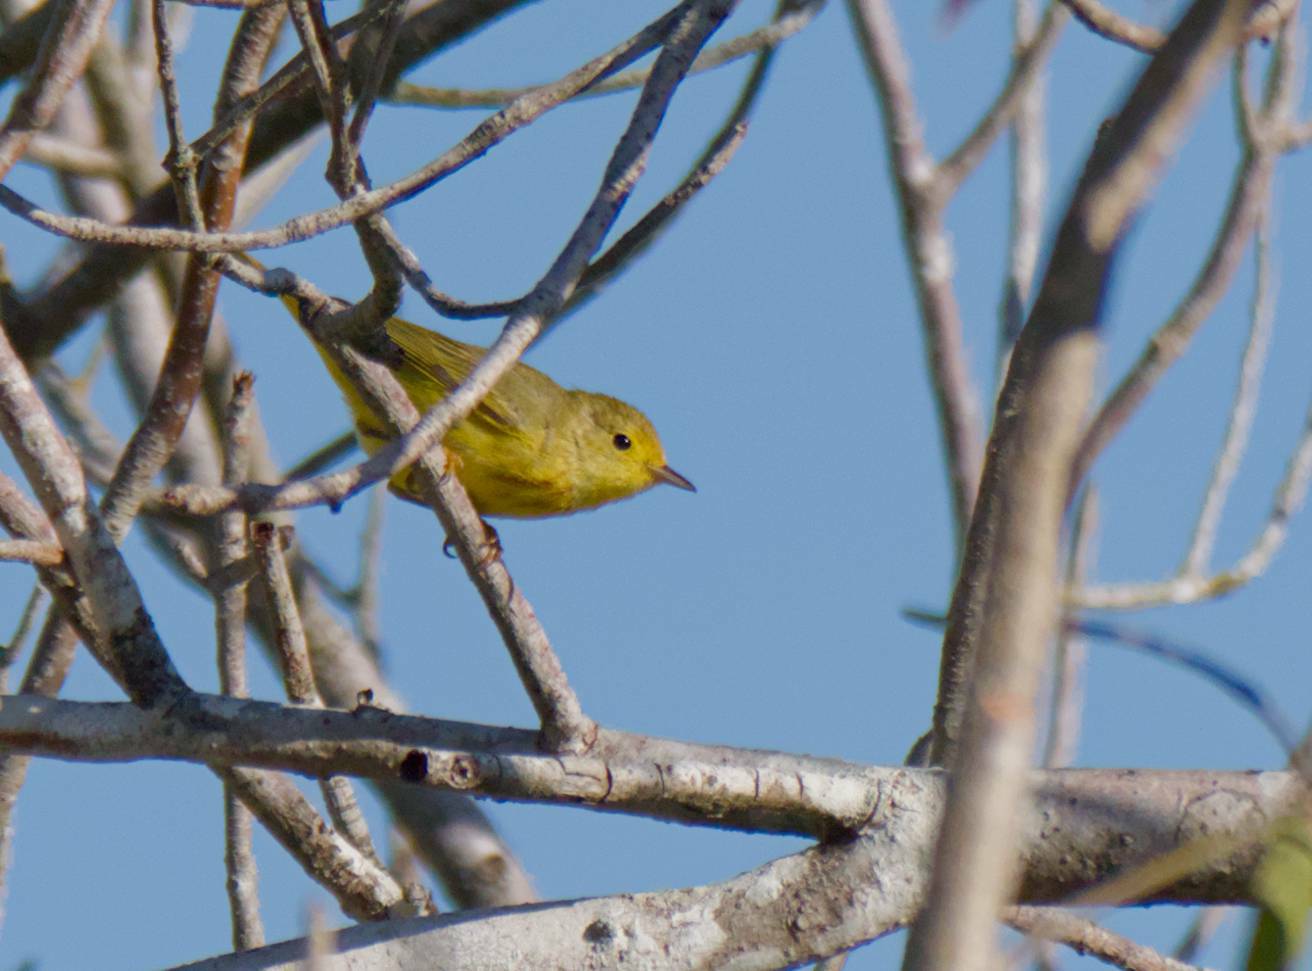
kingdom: Animalia
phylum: Chordata
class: Aves
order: Passeriformes
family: Parulidae
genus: Setophaga
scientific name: Setophaga petechia
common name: Yellow warbler
